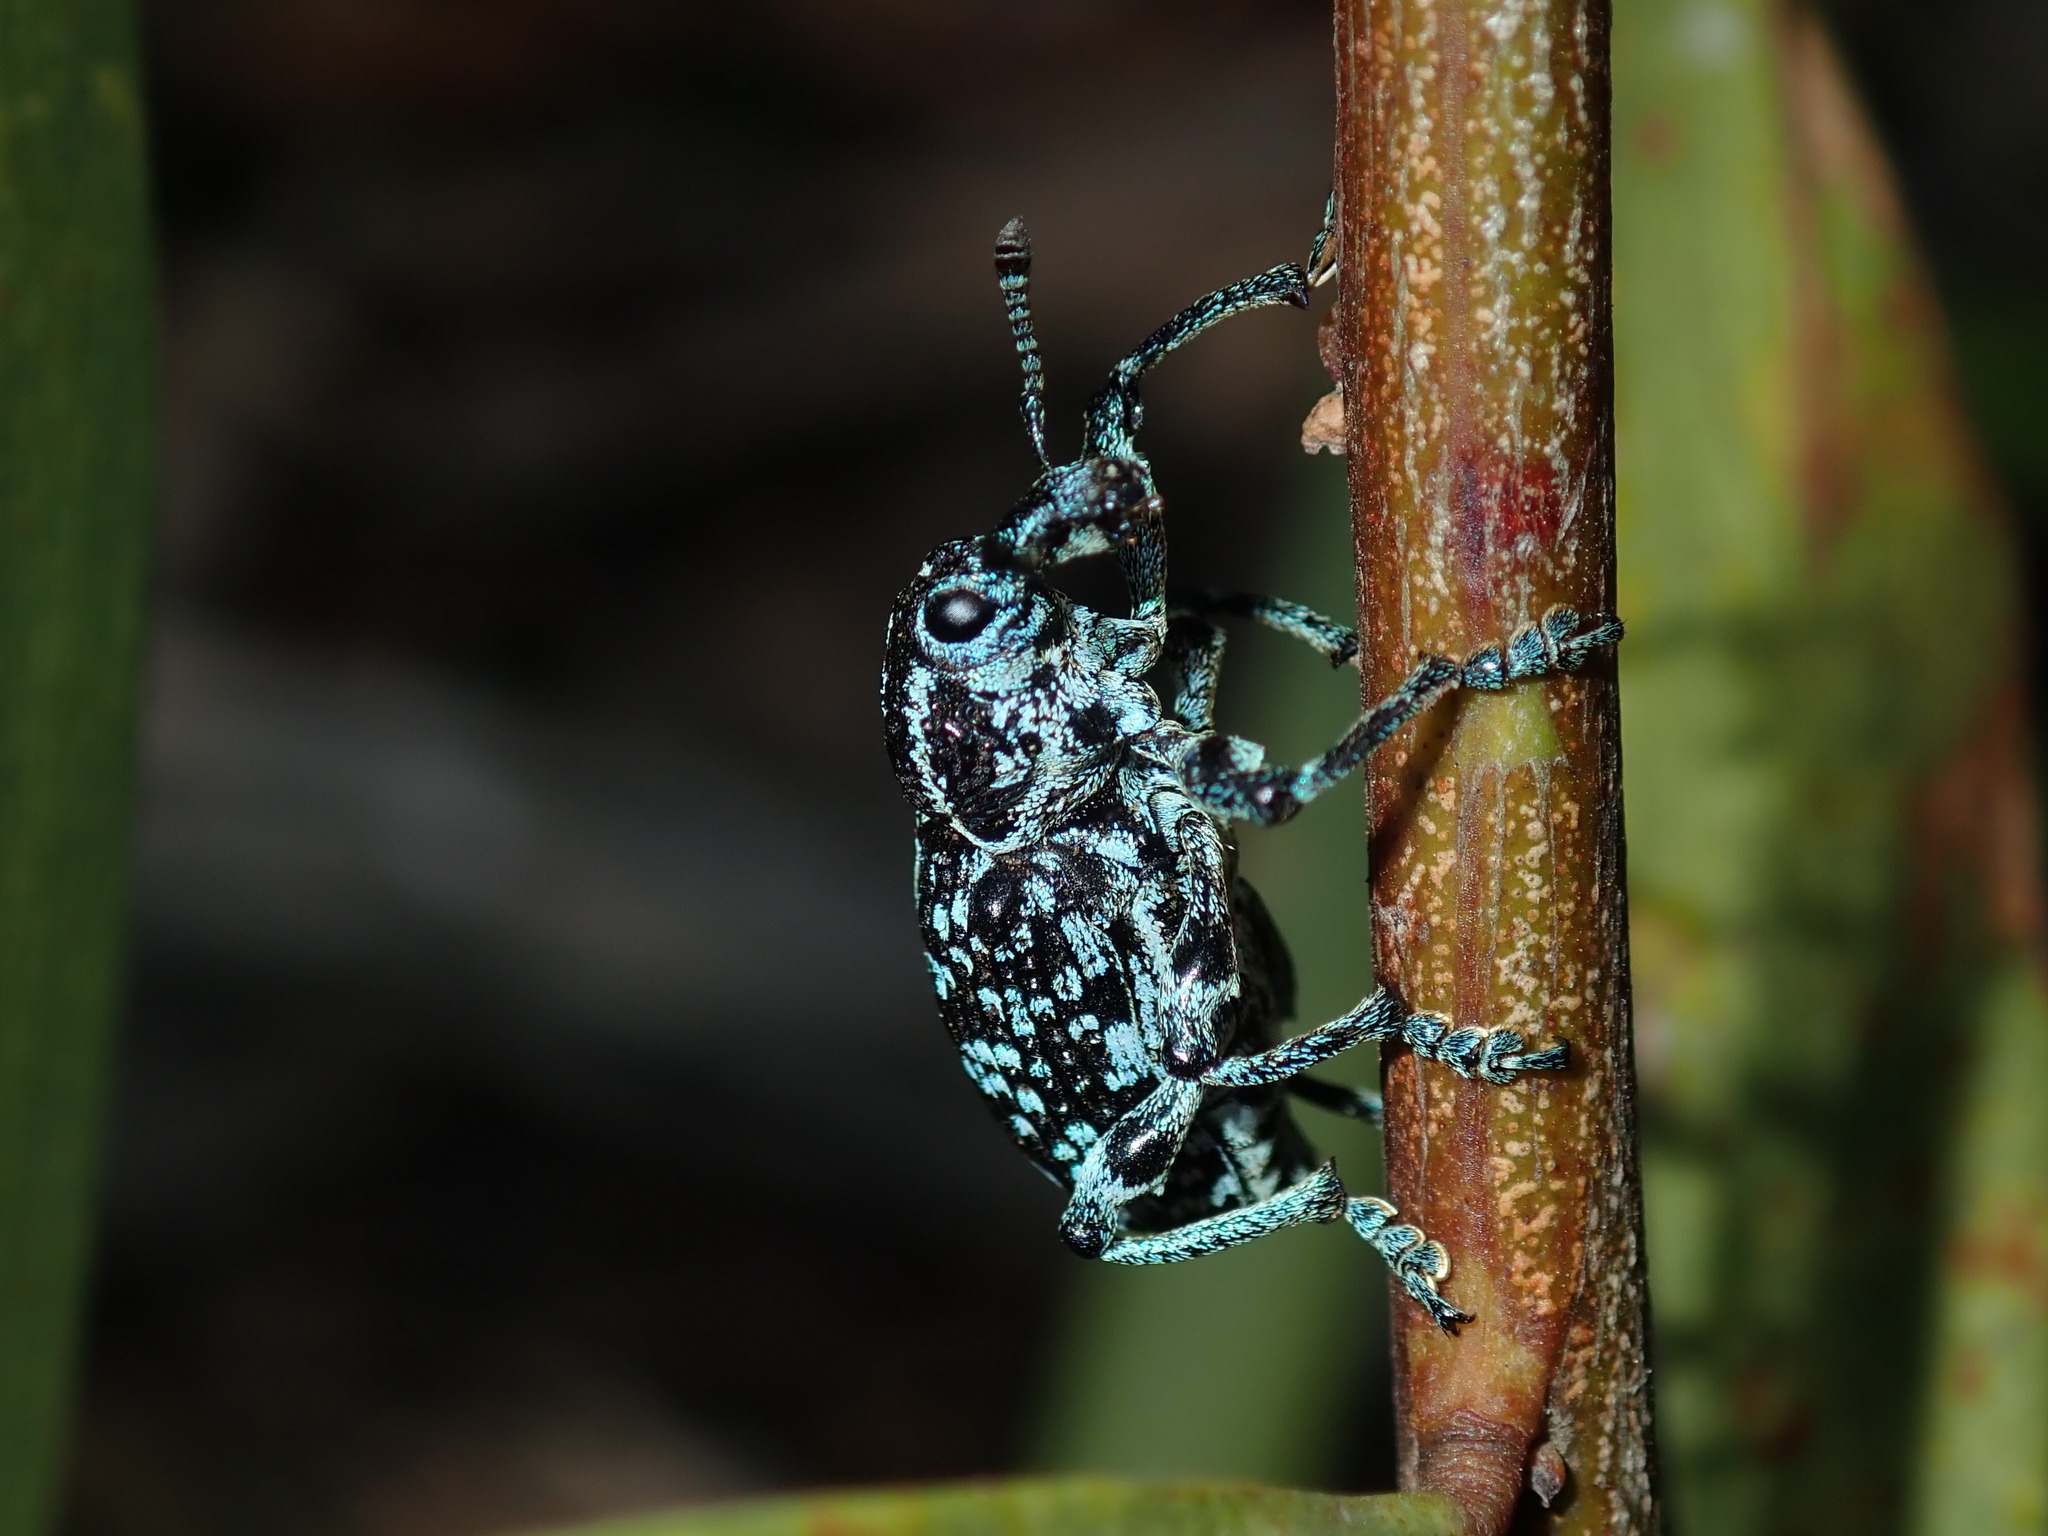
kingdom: Animalia
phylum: Arthropoda
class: Insecta
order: Coleoptera
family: Curculionidae
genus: Chrysolopus
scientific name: Chrysolopus spectabilis
